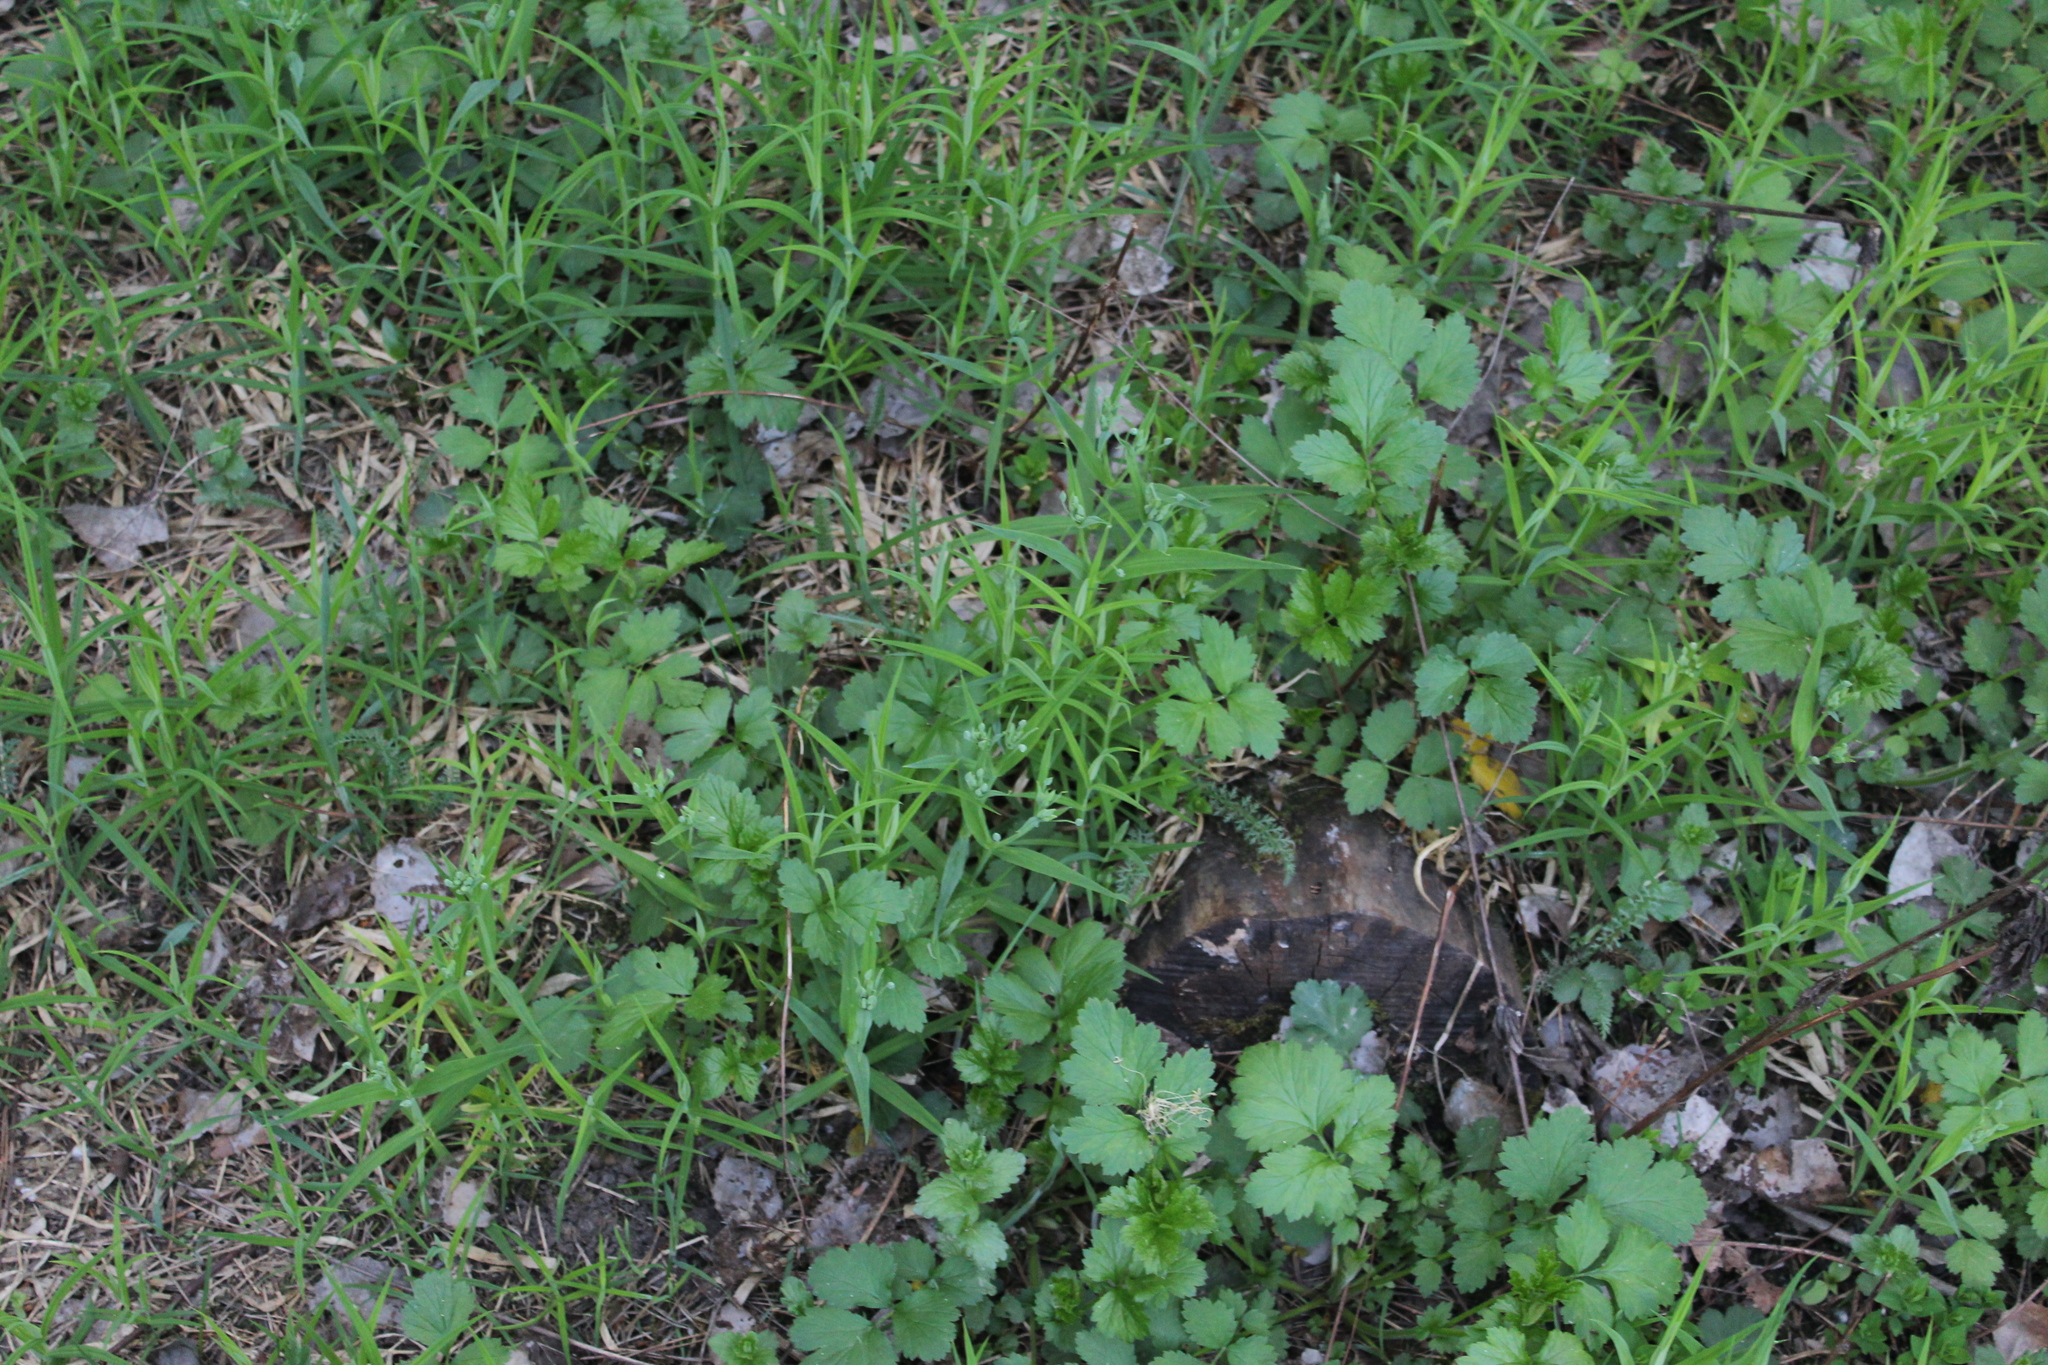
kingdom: Plantae
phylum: Tracheophyta
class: Magnoliopsida
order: Caryophyllales
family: Caryophyllaceae
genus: Rabelera
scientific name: Rabelera holostea
